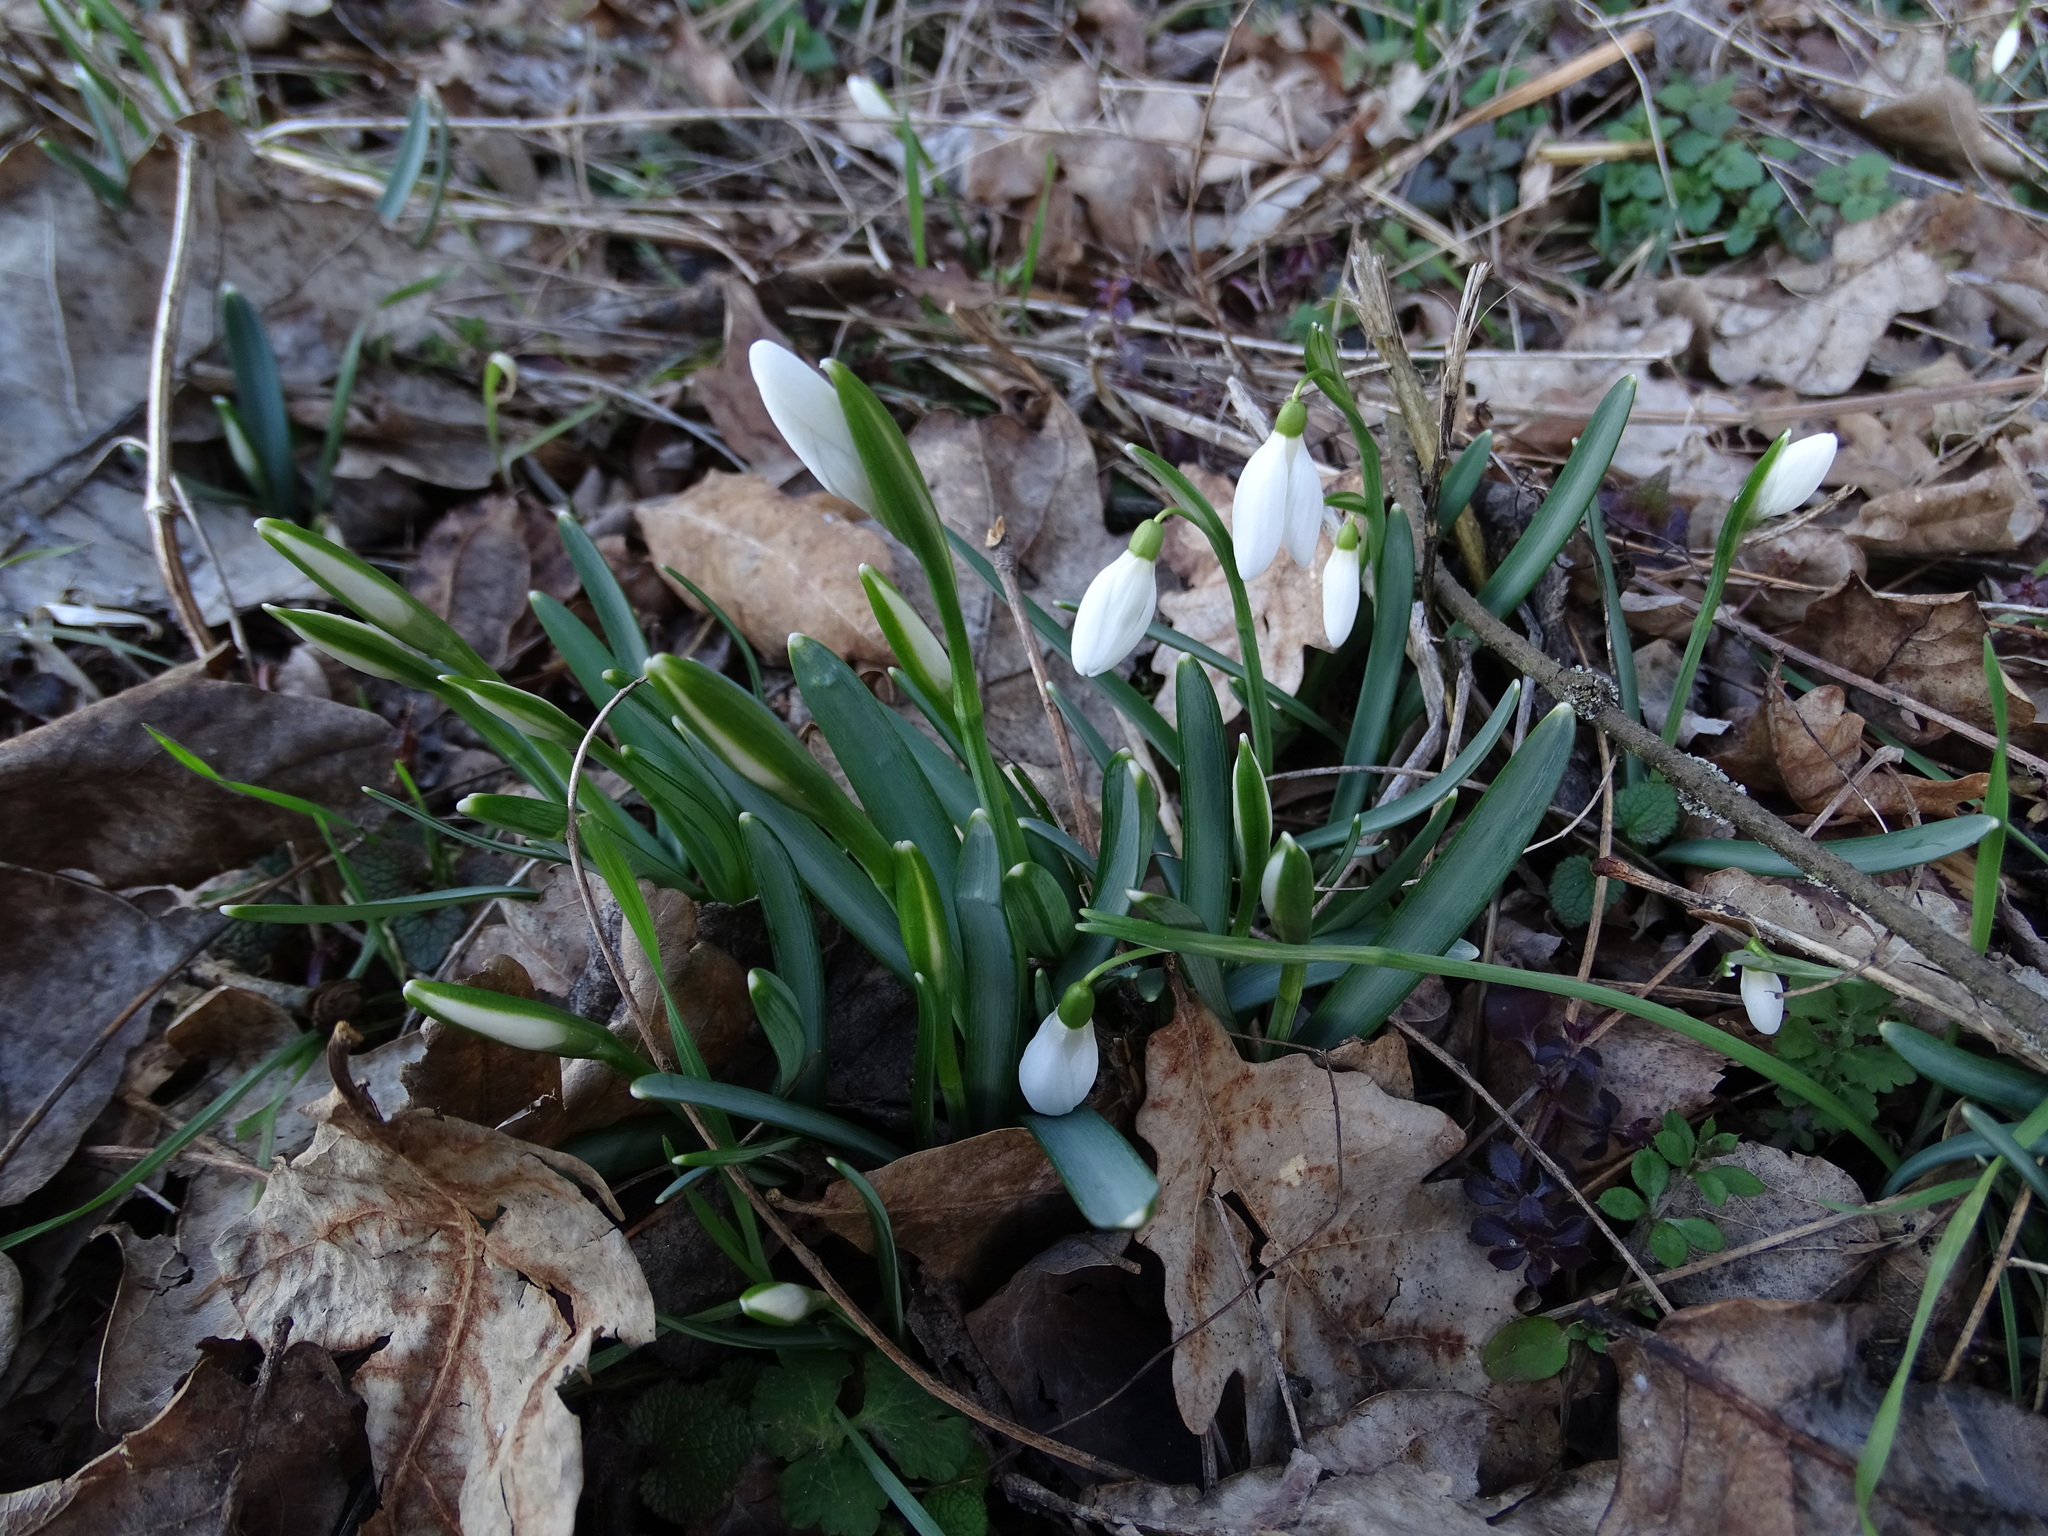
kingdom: Plantae
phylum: Tracheophyta
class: Liliopsida
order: Asparagales
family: Amaryllidaceae
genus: Galanthus
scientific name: Galanthus nivalis
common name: Snowdrop
